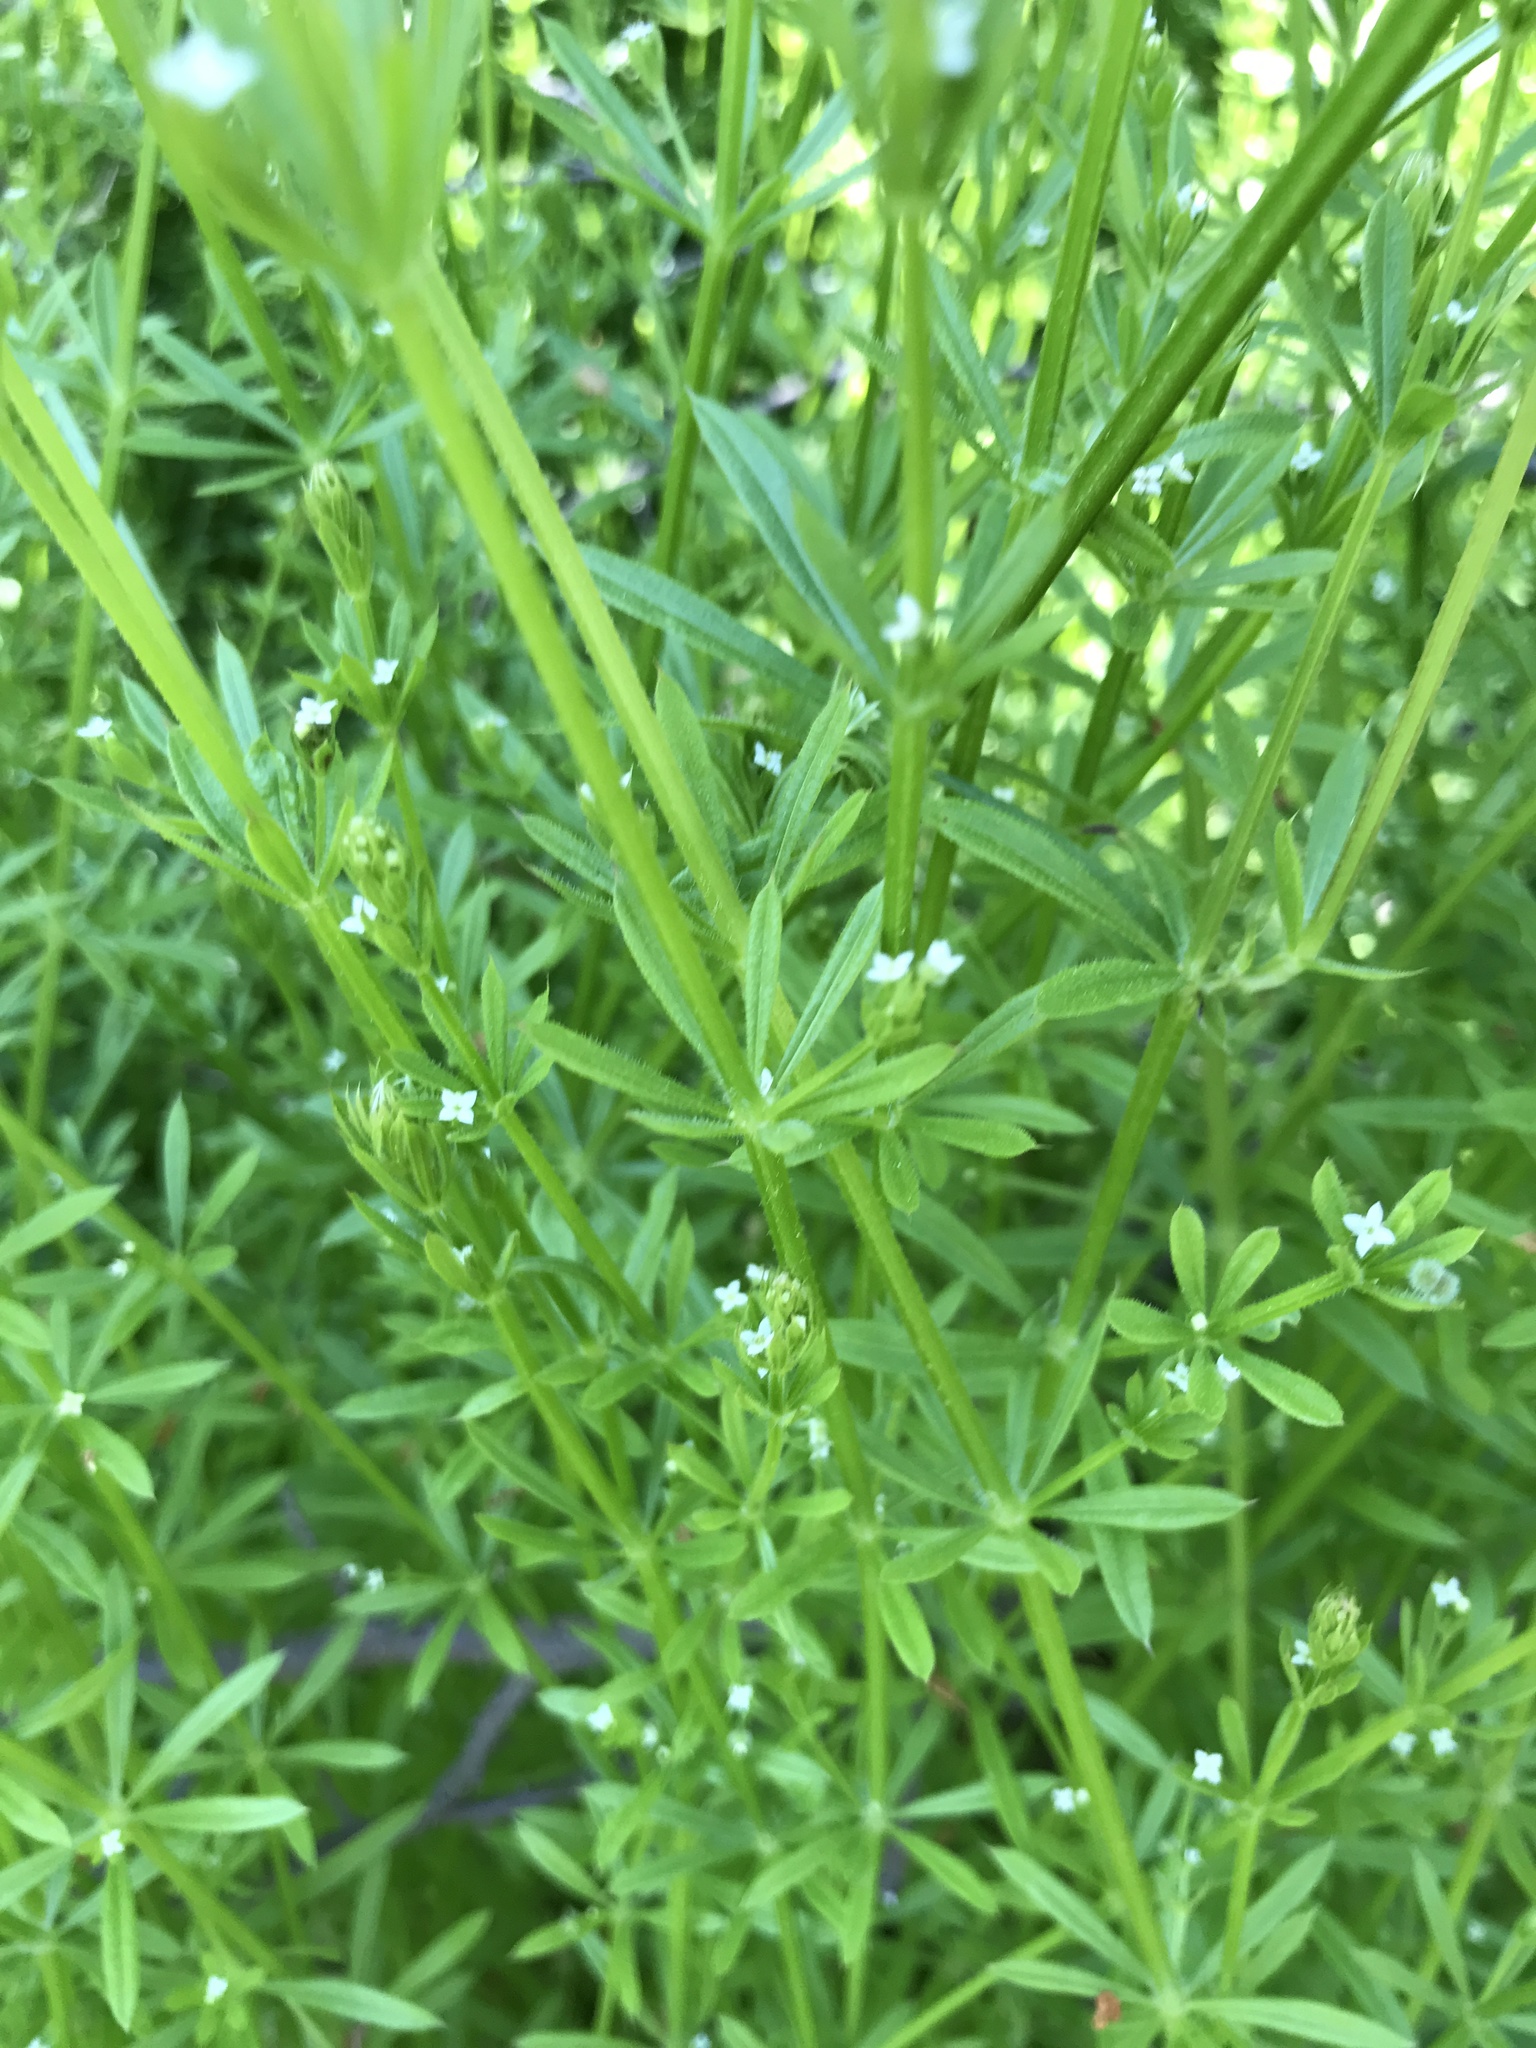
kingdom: Plantae
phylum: Tracheophyta
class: Magnoliopsida
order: Gentianales
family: Rubiaceae
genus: Galium
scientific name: Galium aparine
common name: Cleavers
